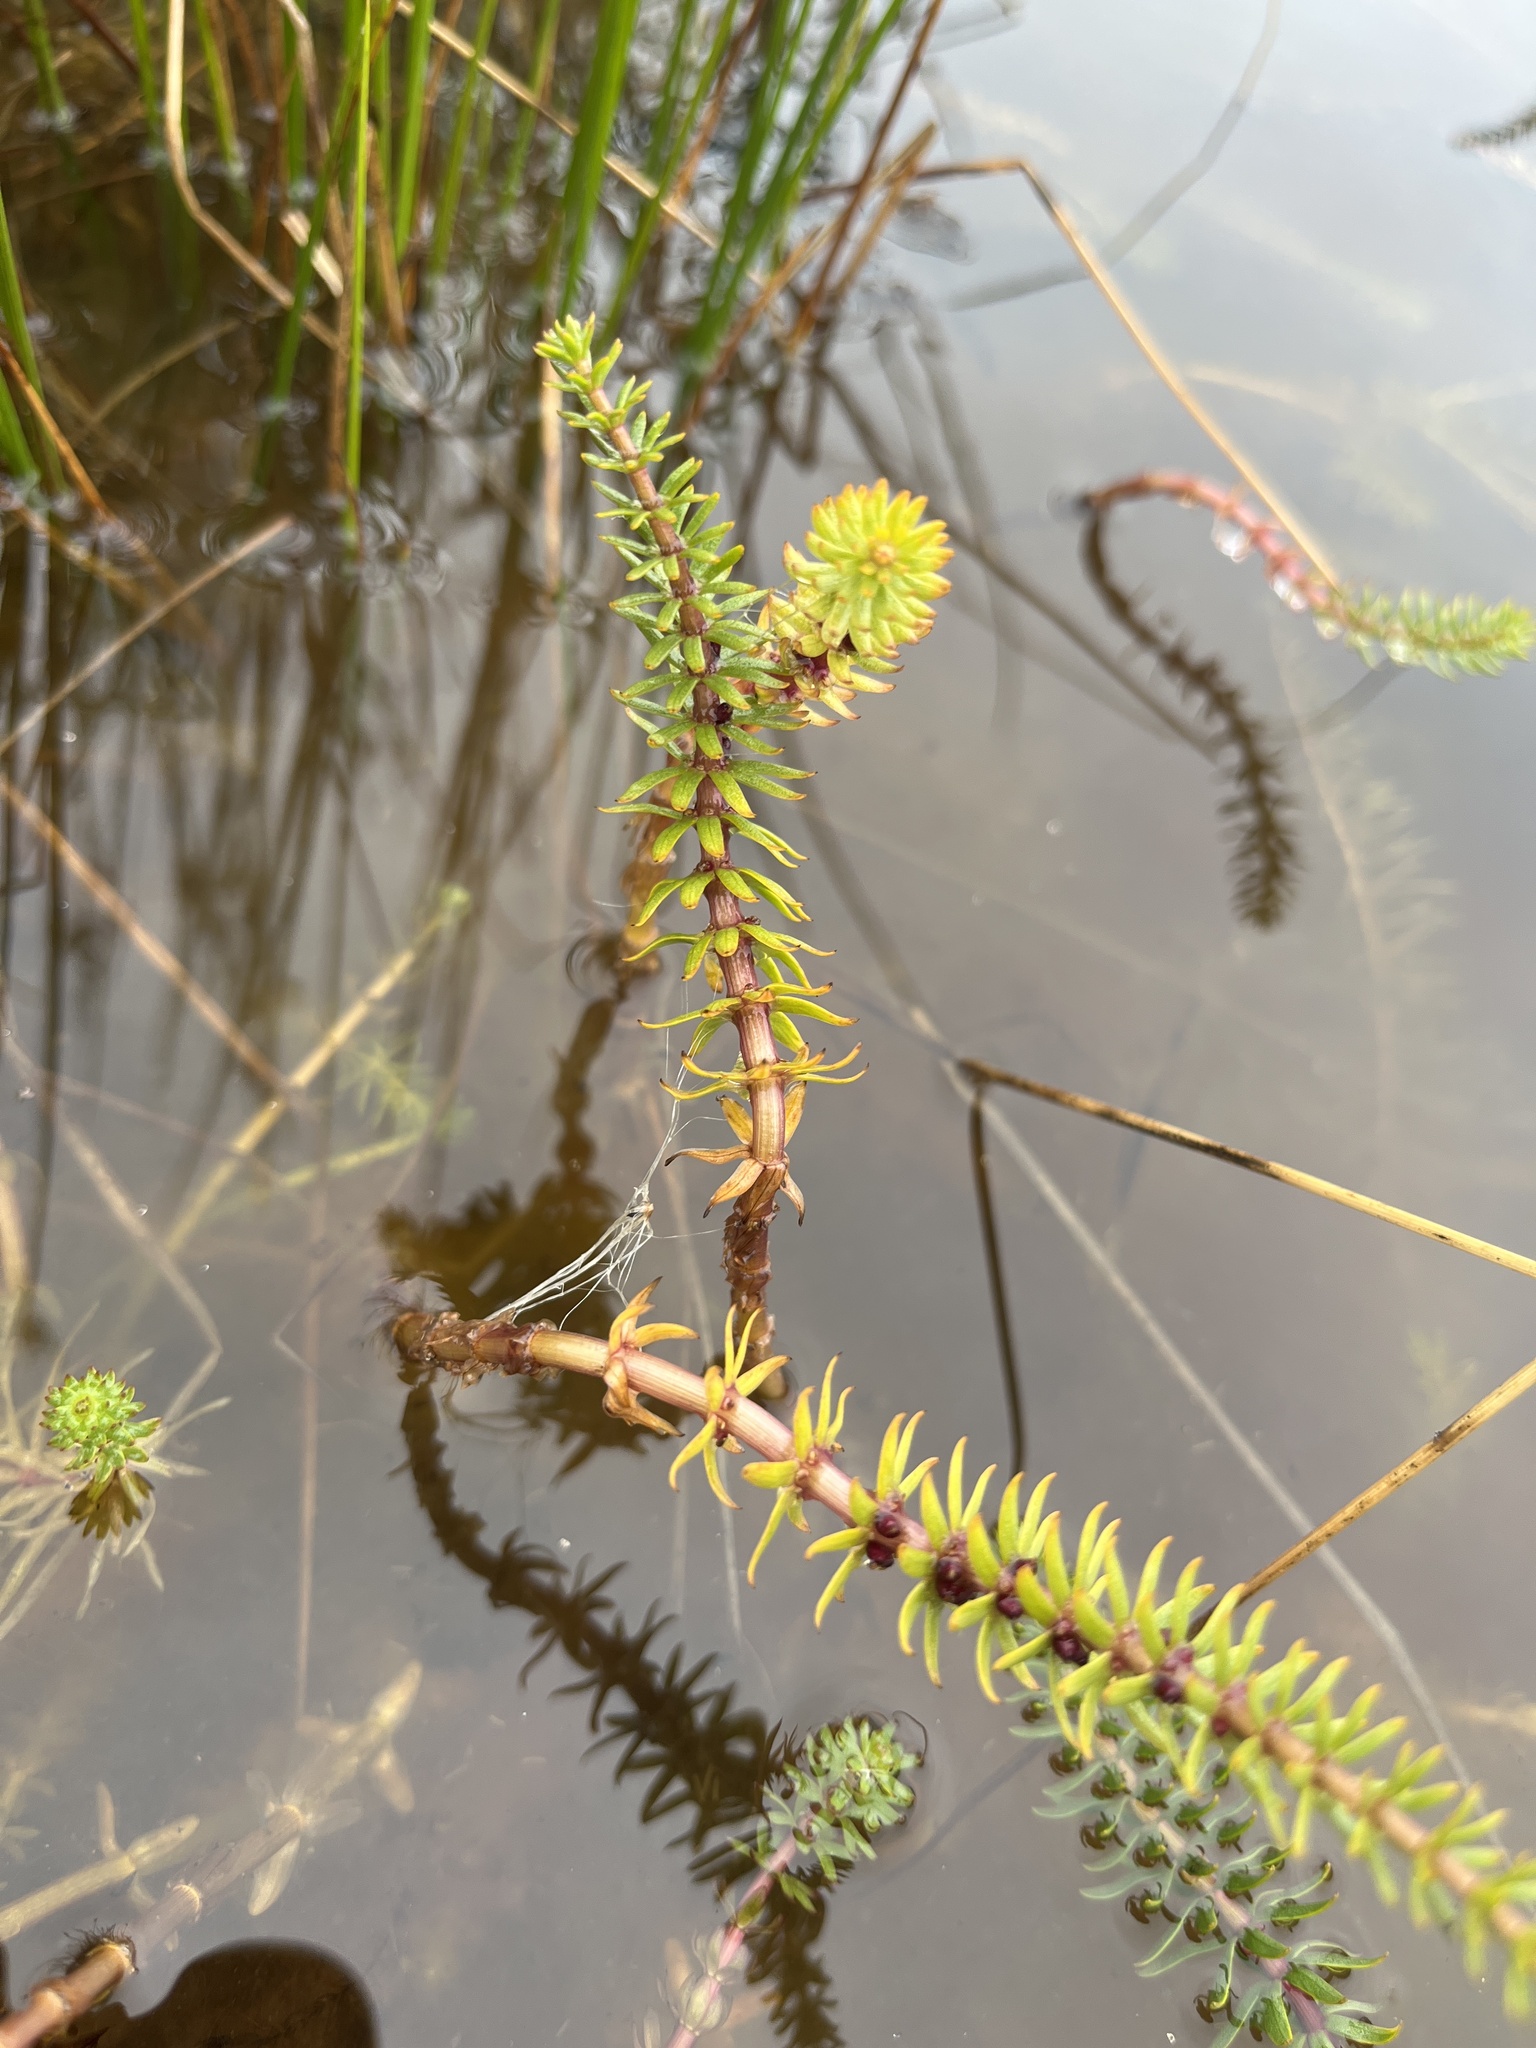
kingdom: Plantae
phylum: Tracheophyta
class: Magnoliopsida
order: Lamiales
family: Plantaginaceae
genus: Hippuris
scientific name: Hippuris lanceolata
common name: Lance-leaved mare's-tail
